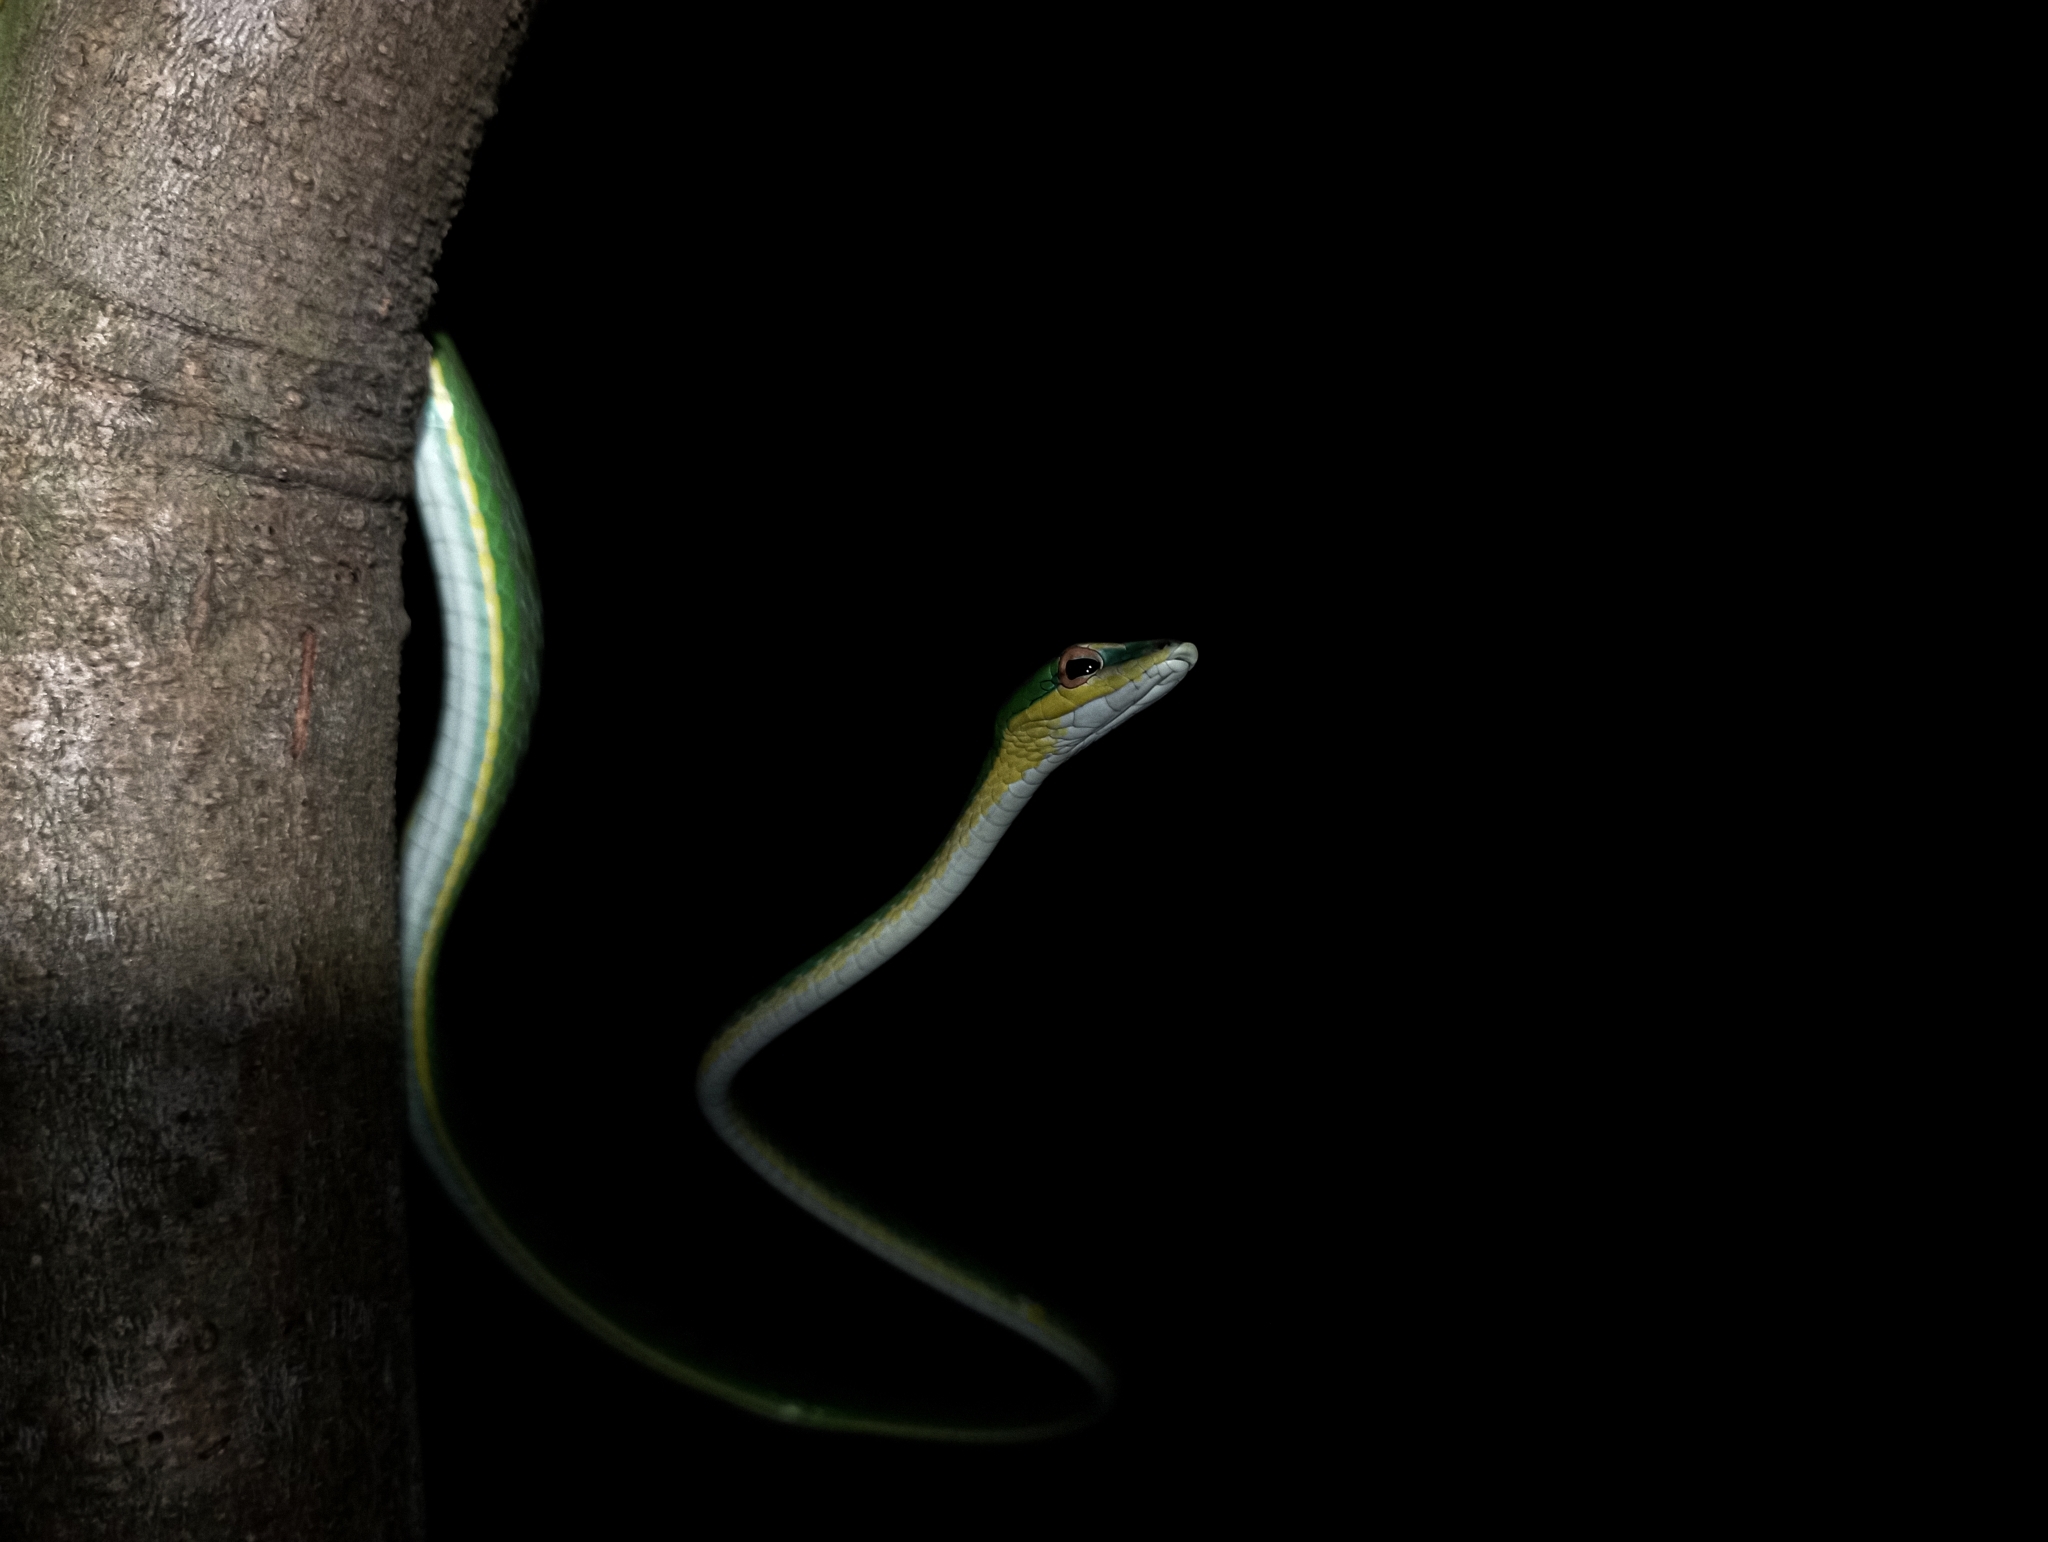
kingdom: Animalia
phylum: Chordata
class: Squamata
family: Colubridae
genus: Ahaetulla
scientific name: Ahaetulla mycterizans
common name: Malayan whip snake
